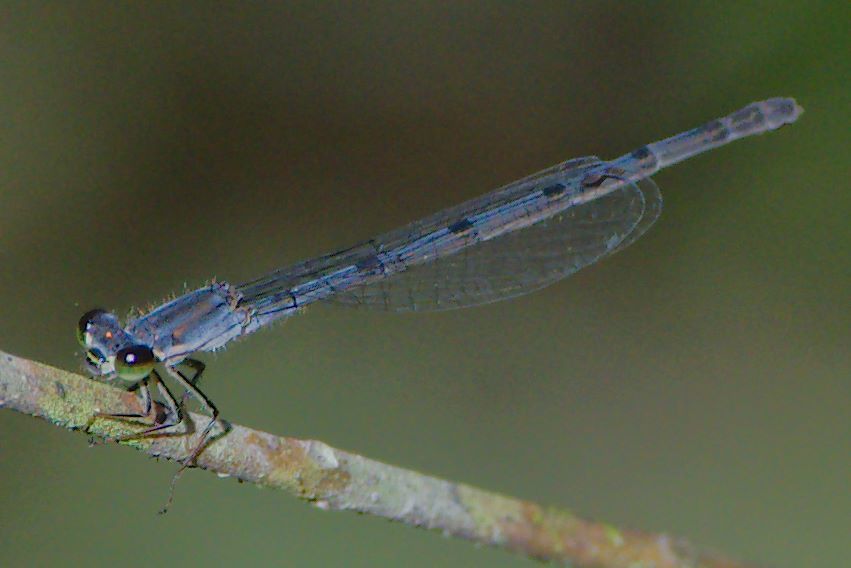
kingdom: Animalia
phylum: Arthropoda
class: Insecta
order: Odonata
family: Coenagrionidae
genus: Ischnura
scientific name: Ischnura posita
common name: Fragile forktail
